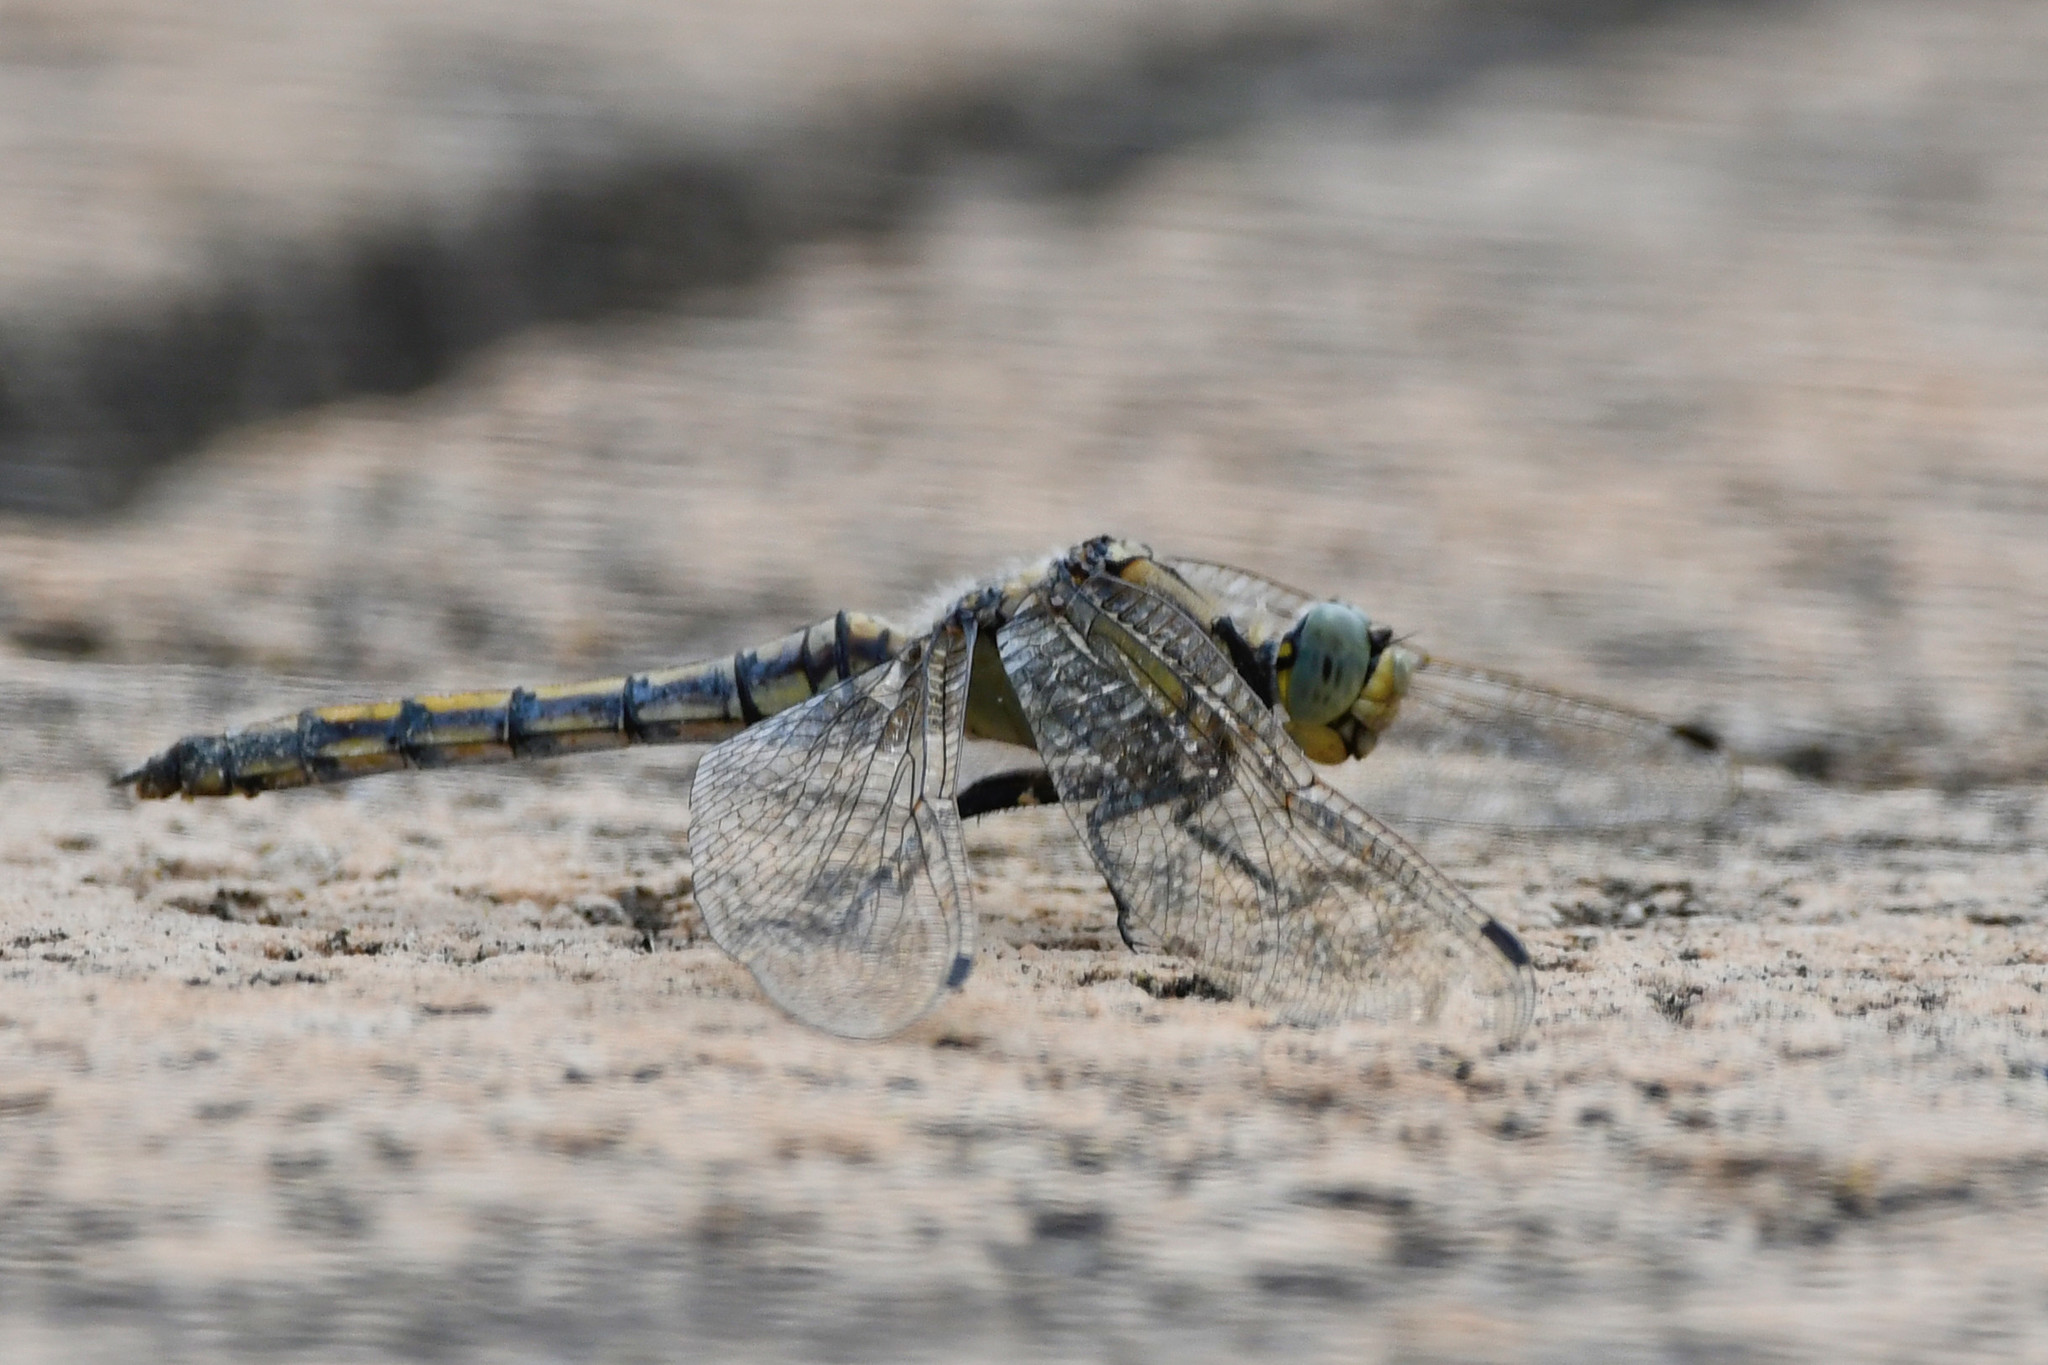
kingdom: Animalia
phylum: Arthropoda
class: Insecta
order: Odonata
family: Libellulidae
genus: Orthetrum
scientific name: Orthetrum cancellatum
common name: Black-tailed skimmer
